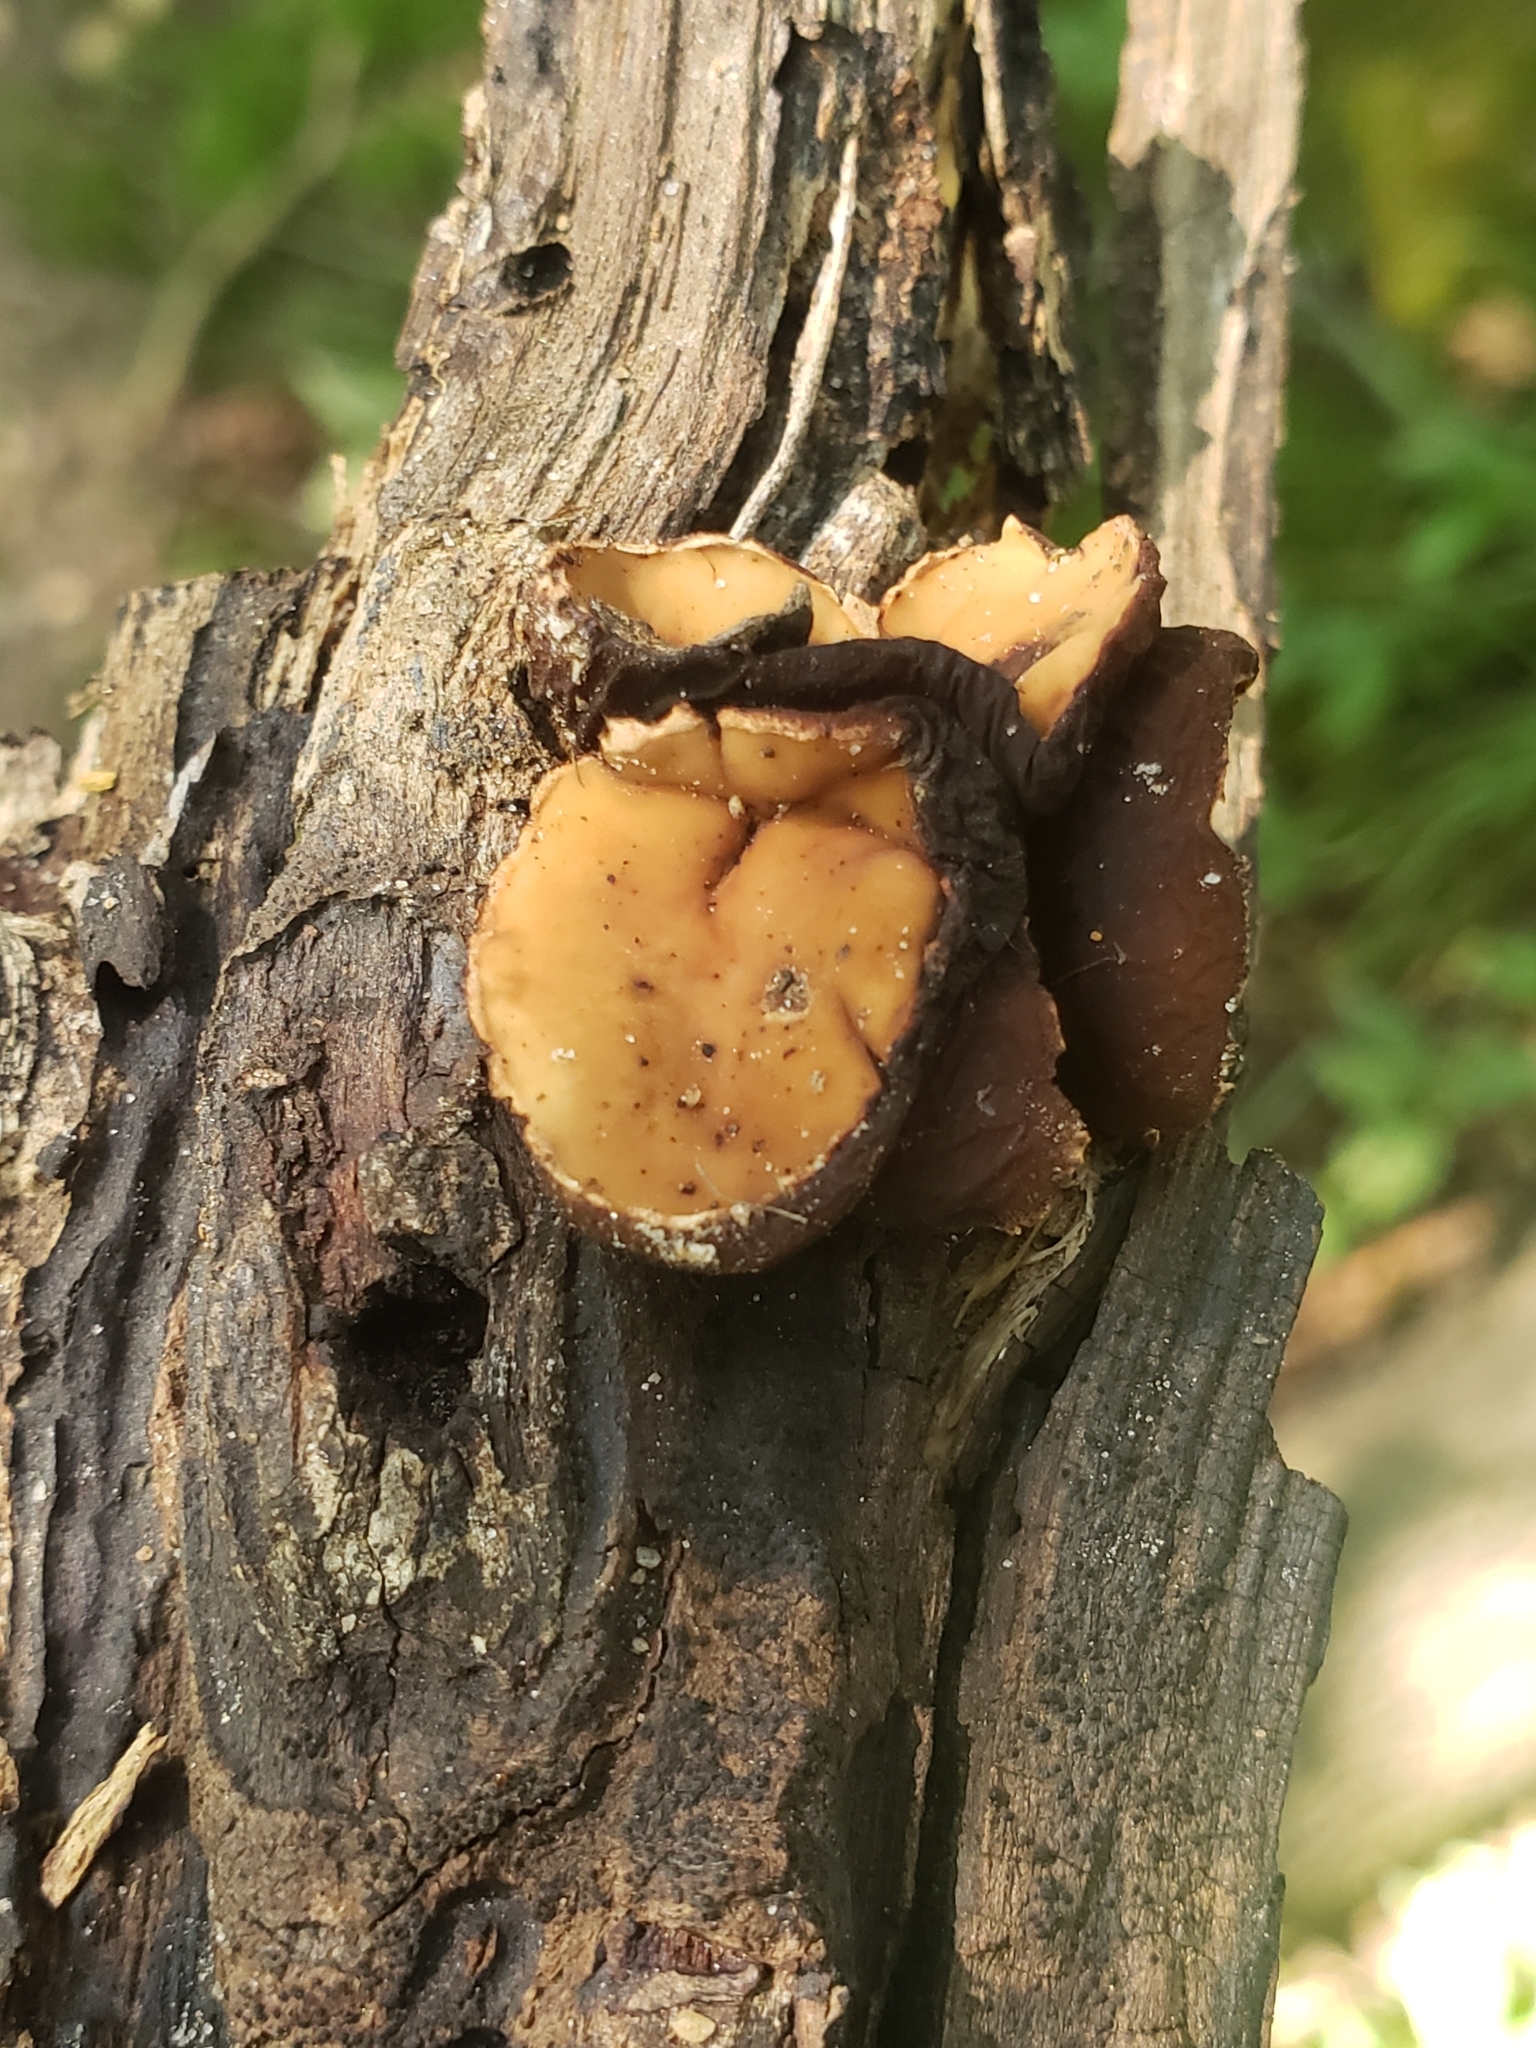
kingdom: Fungi
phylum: Ascomycota
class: Pezizomycetes
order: Pezizales
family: Sarcosomataceae
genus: Galiella
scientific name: Galiella rufa
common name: Hairy rubber cup
